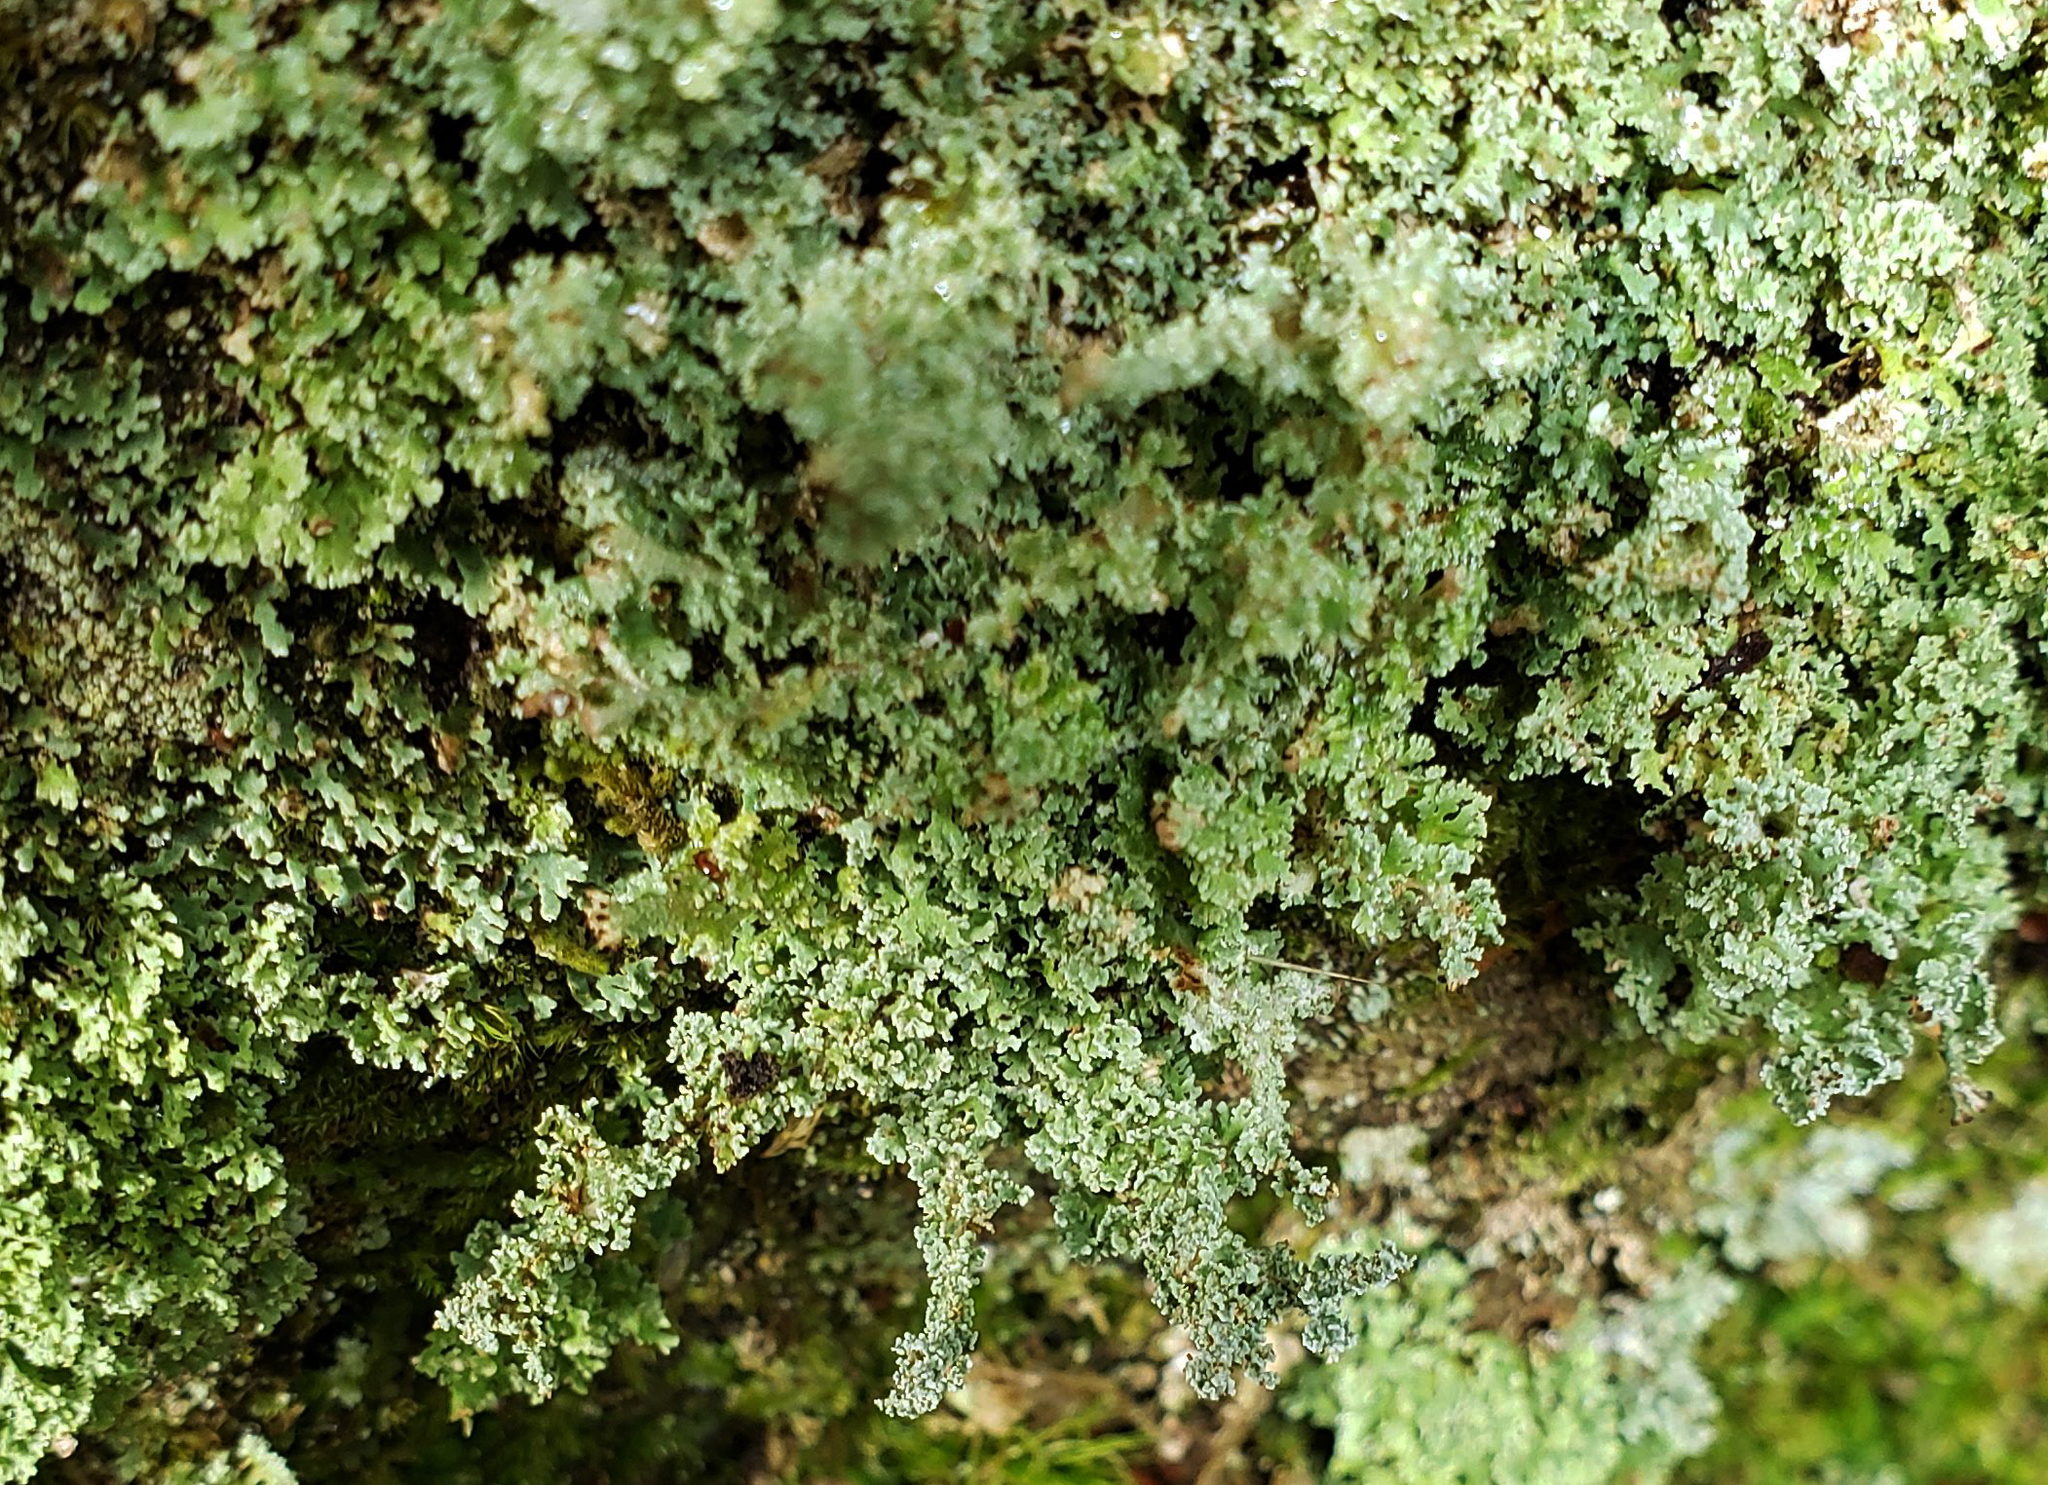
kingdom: Fungi
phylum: Ascomycota
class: Lecanoromycetes
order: Lecanorales
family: Cladoniaceae
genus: Cladonia
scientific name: Cladonia squamosa
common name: Dragon horn
